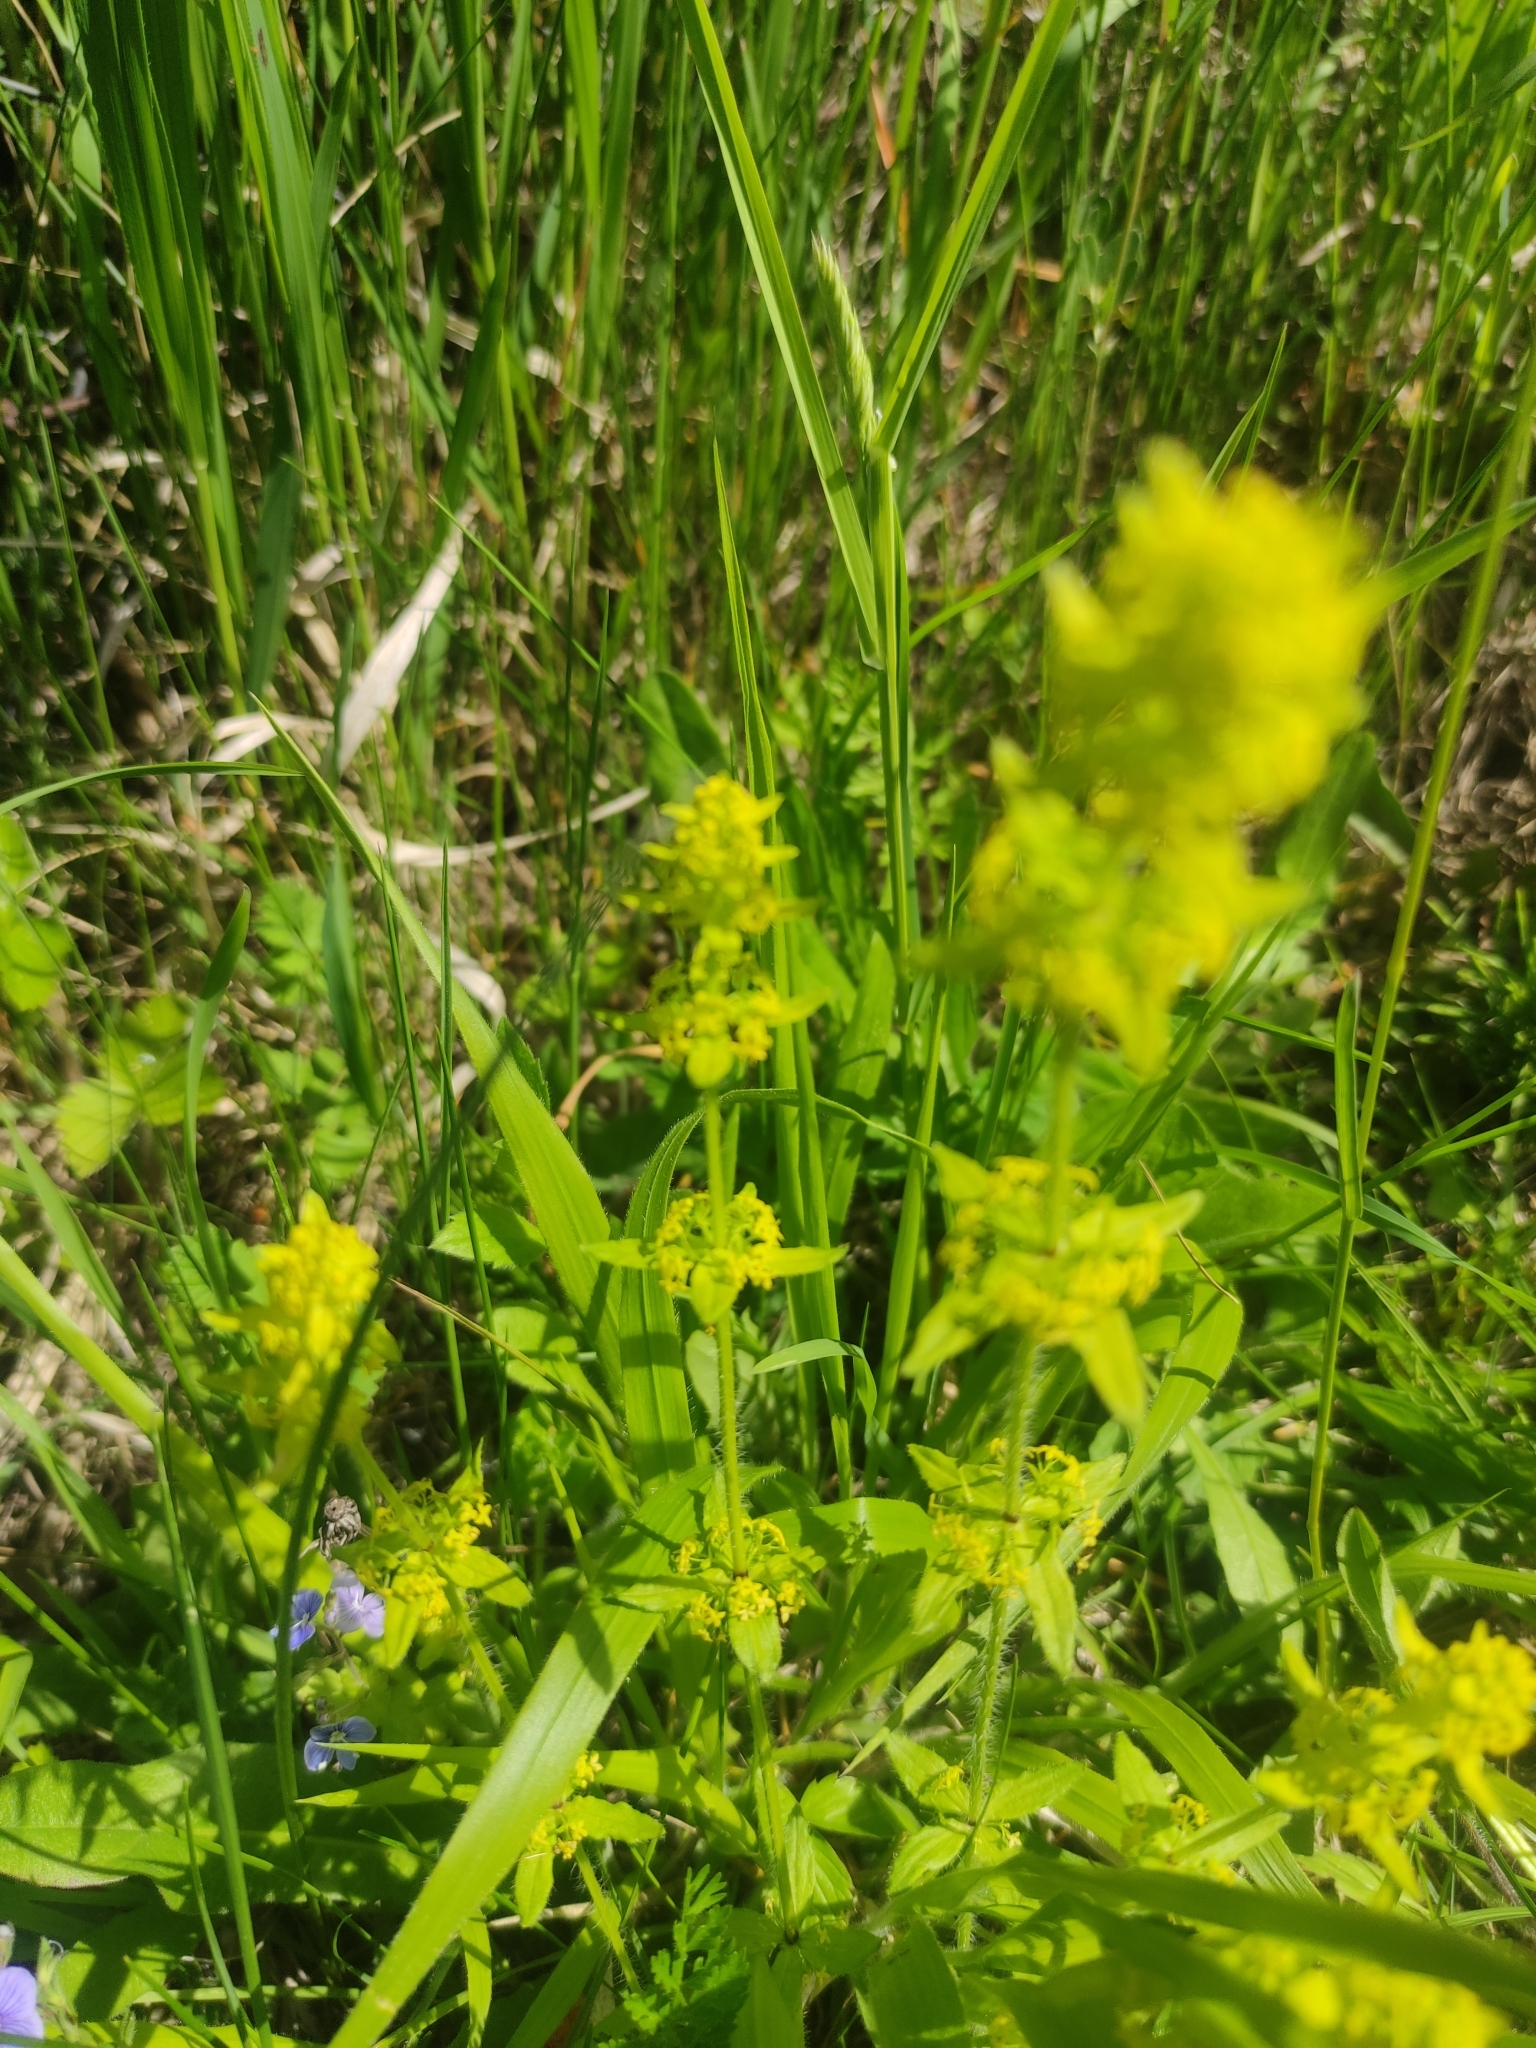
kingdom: Plantae
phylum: Tracheophyta
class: Magnoliopsida
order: Gentianales
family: Rubiaceae
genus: Cruciata
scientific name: Cruciata laevipes
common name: Crosswort
